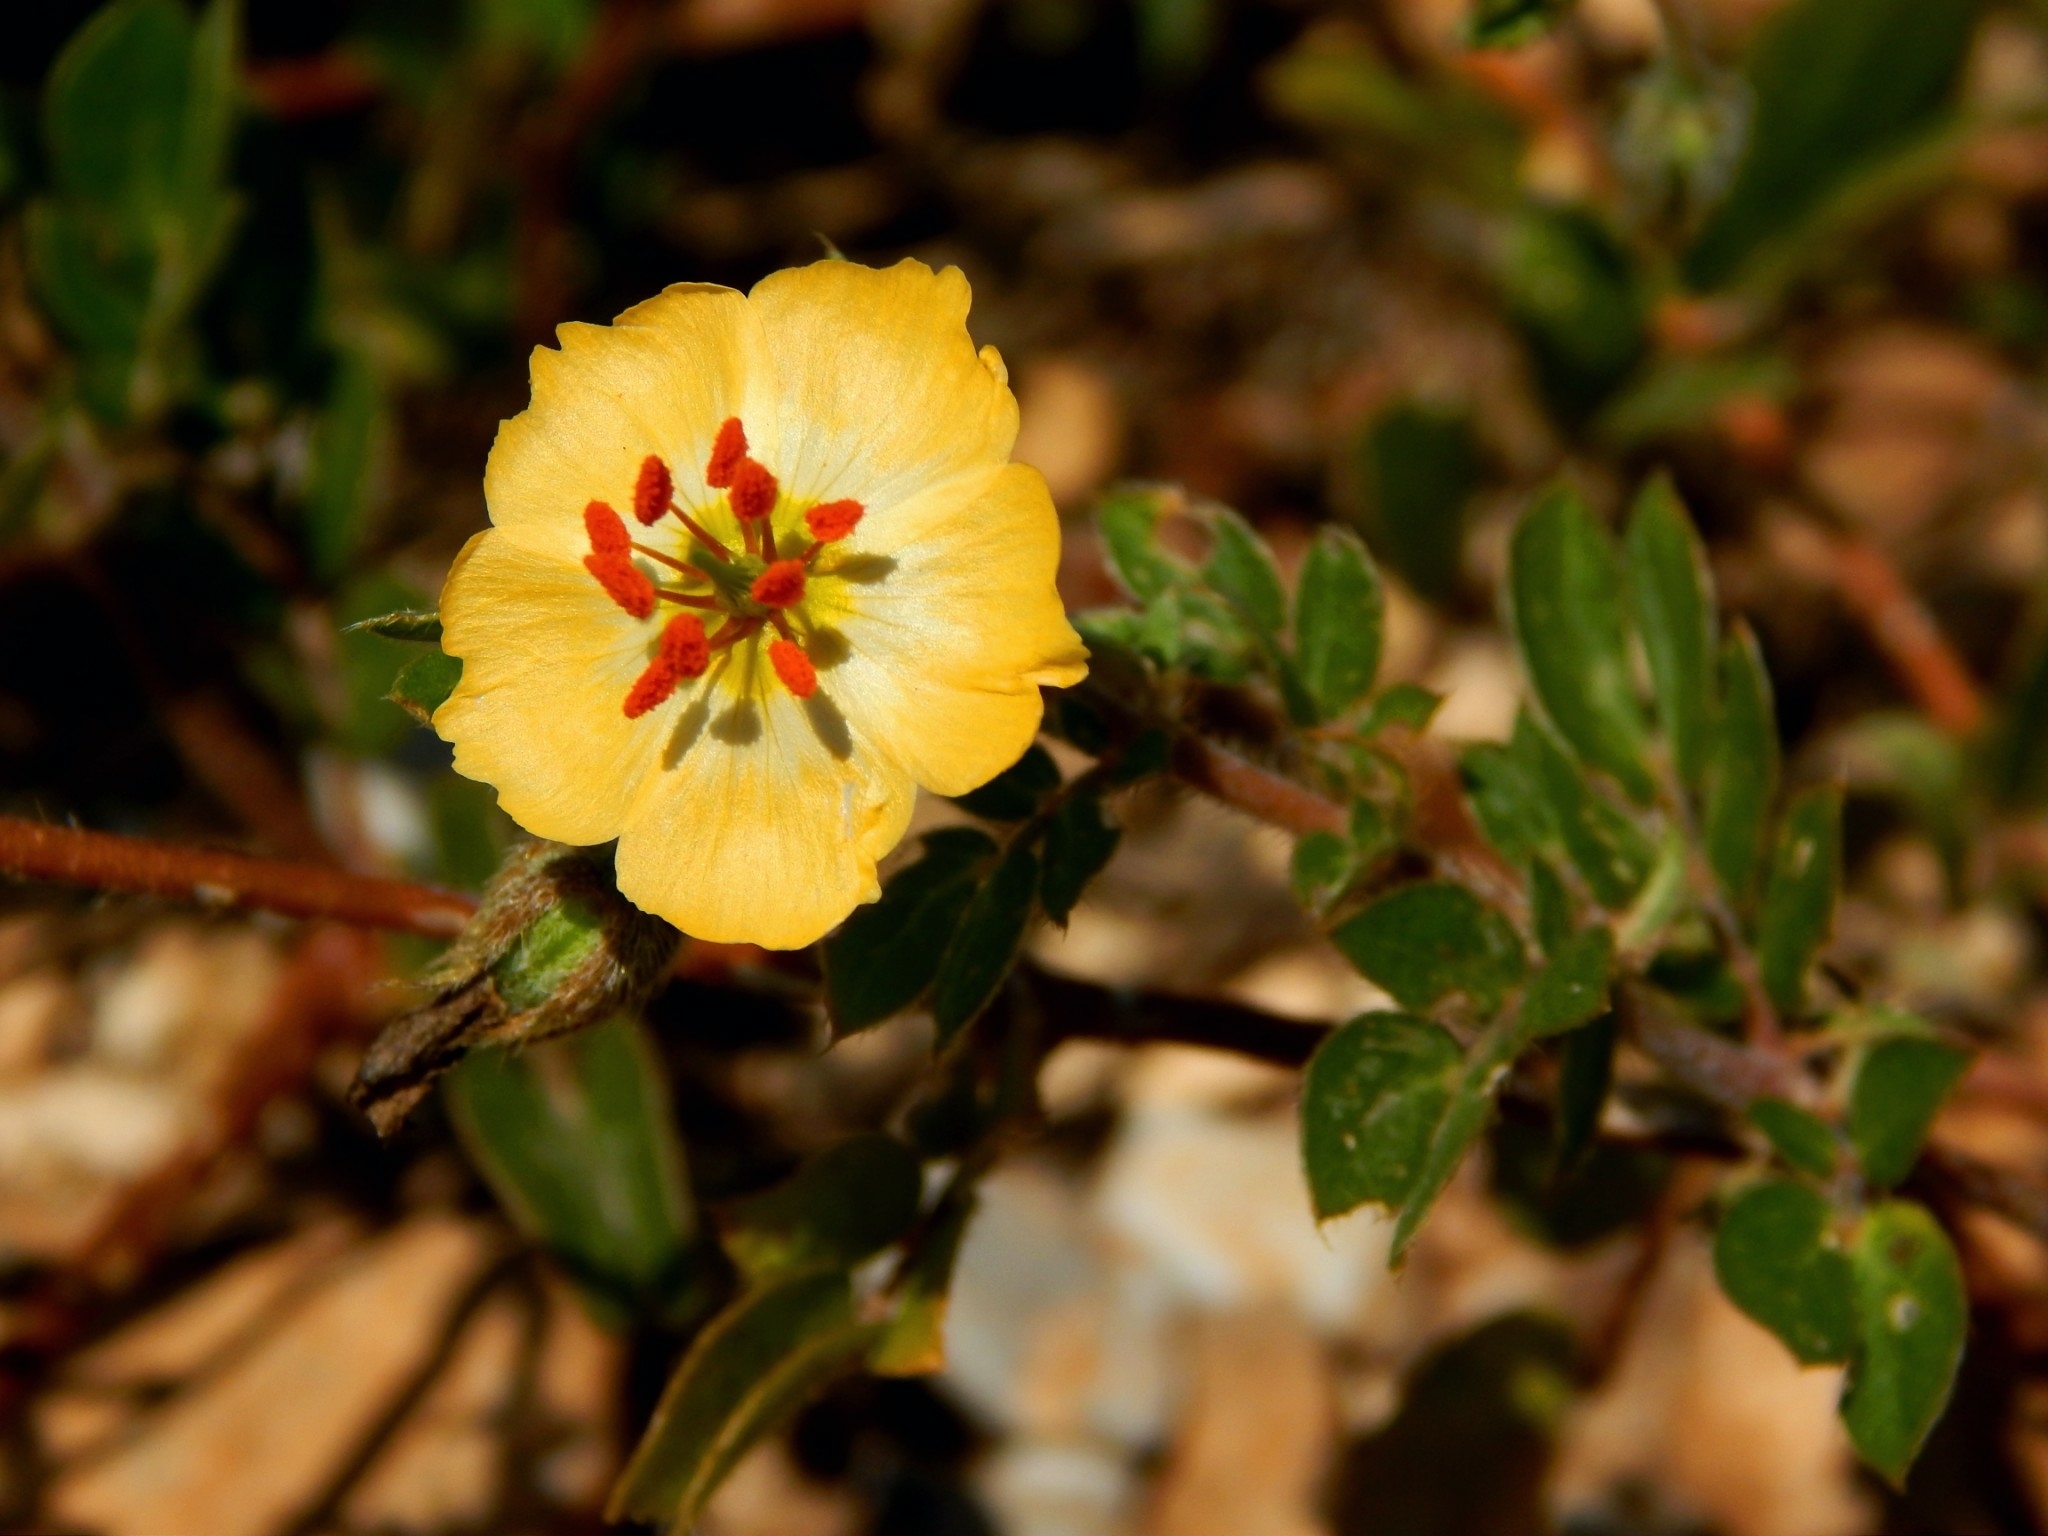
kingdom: Plantae
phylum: Tracheophyta
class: Magnoliopsida
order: Zygophyllales
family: Zygophyllaceae
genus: Kallstroemia
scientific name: Kallstroemia rosei
